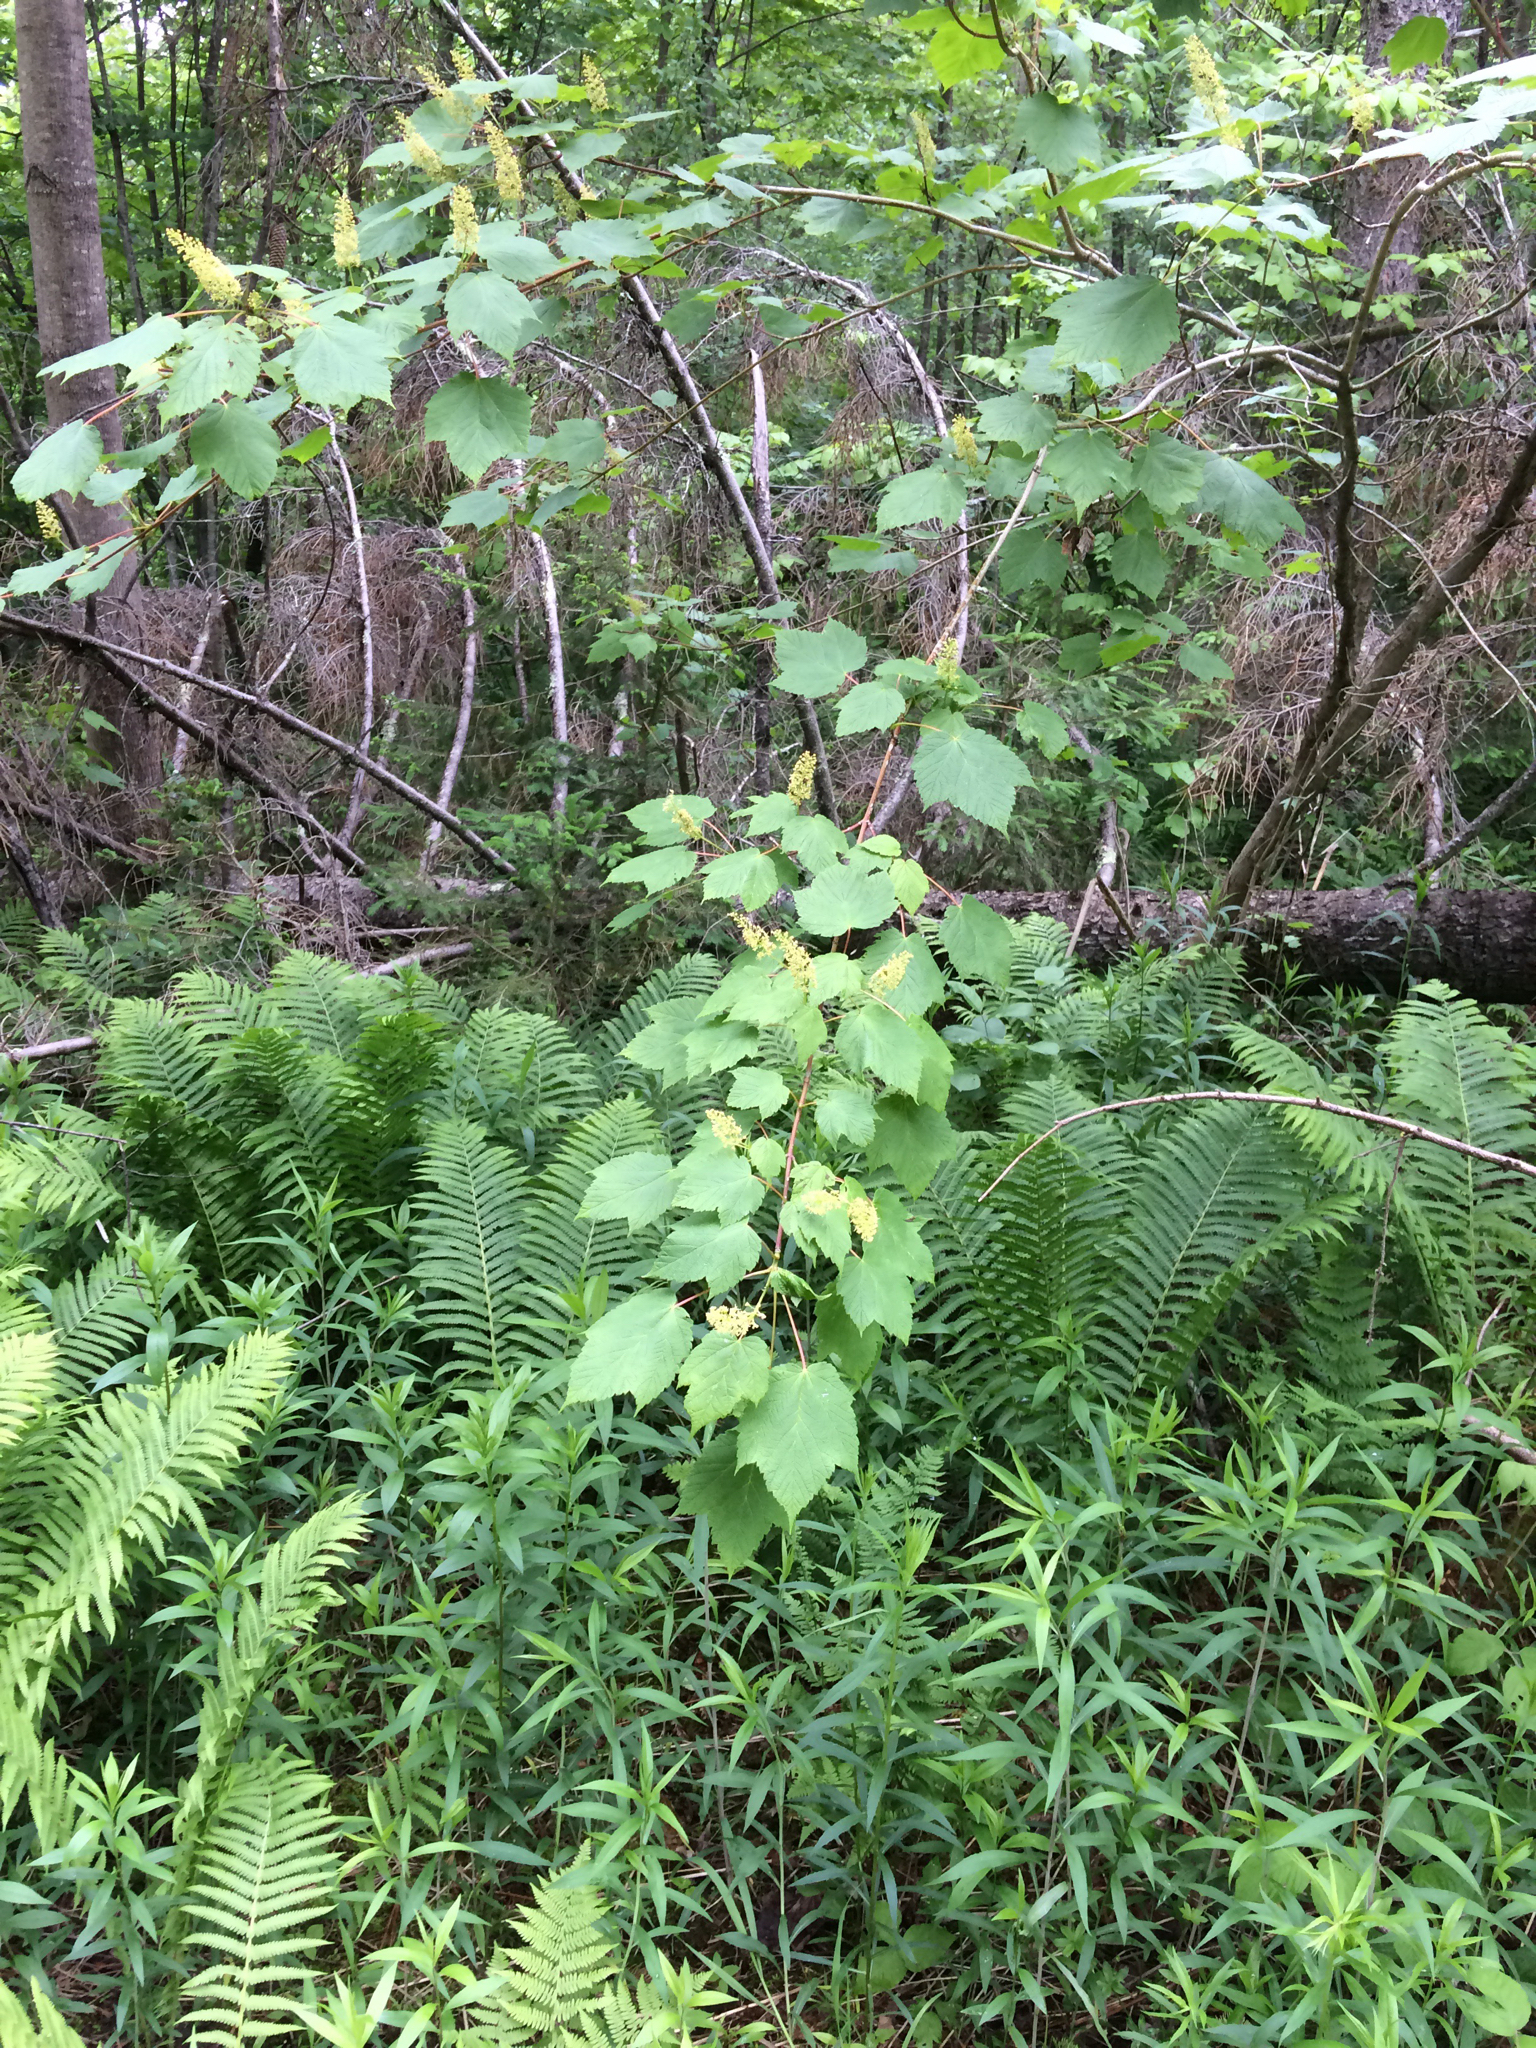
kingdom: Plantae
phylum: Tracheophyta
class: Magnoliopsida
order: Sapindales
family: Sapindaceae
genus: Acer
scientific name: Acer spicatum
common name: Mountain maple
